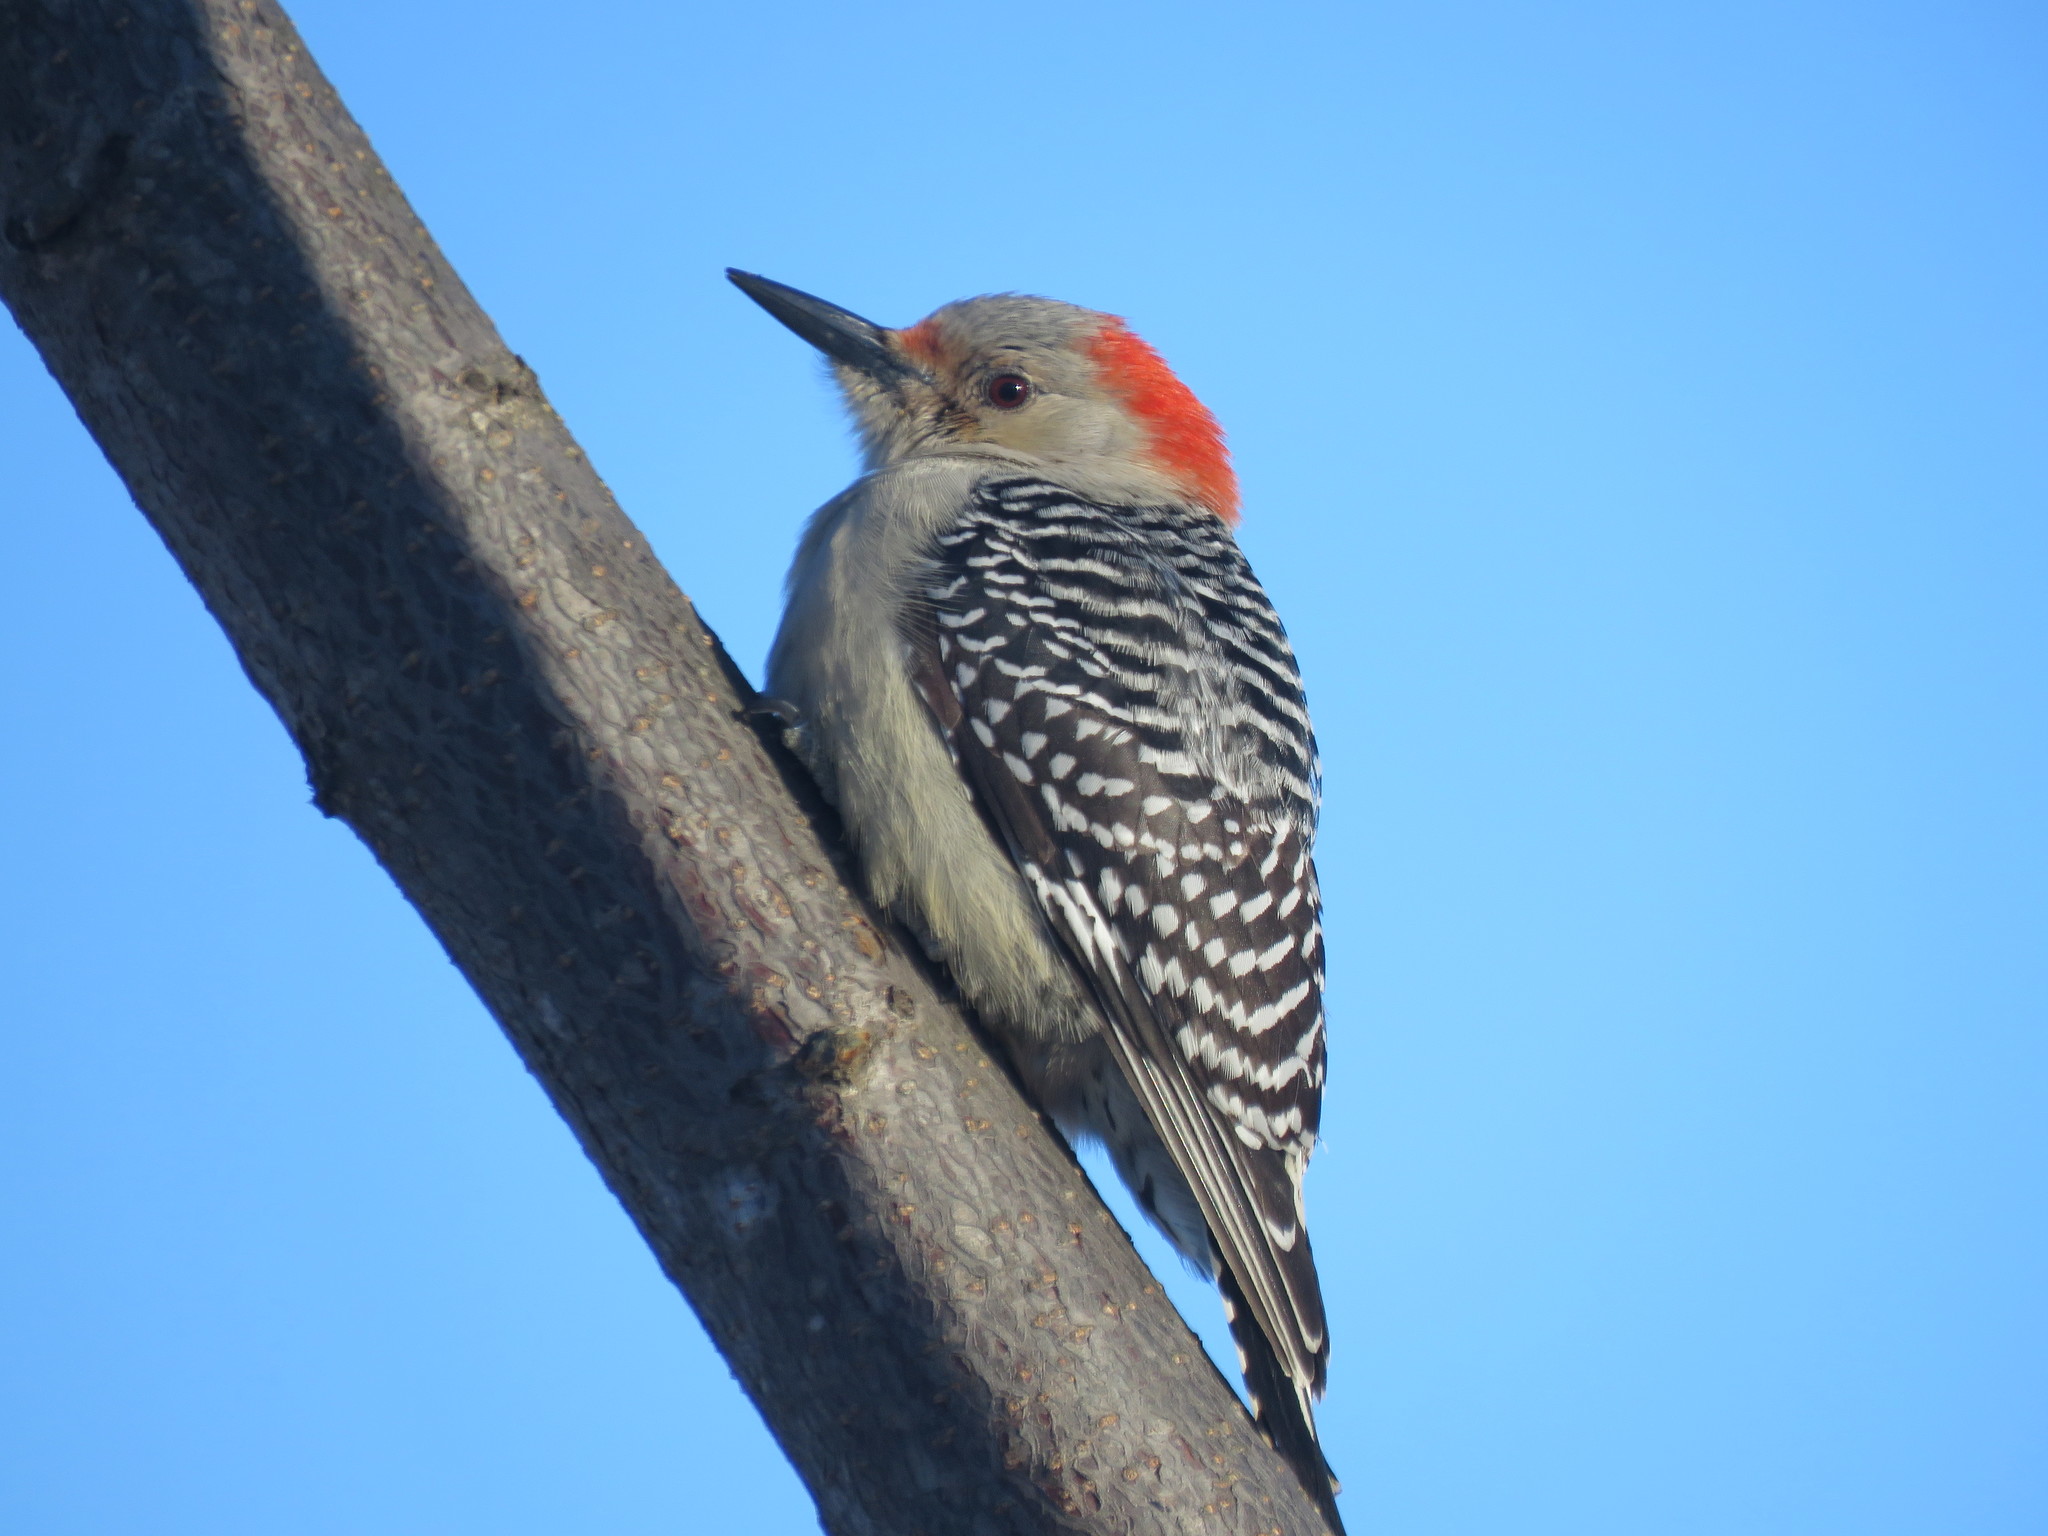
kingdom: Animalia
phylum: Chordata
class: Aves
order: Piciformes
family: Picidae
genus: Melanerpes
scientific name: Melanerpes carolinus
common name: Red-bellied woodpecker
